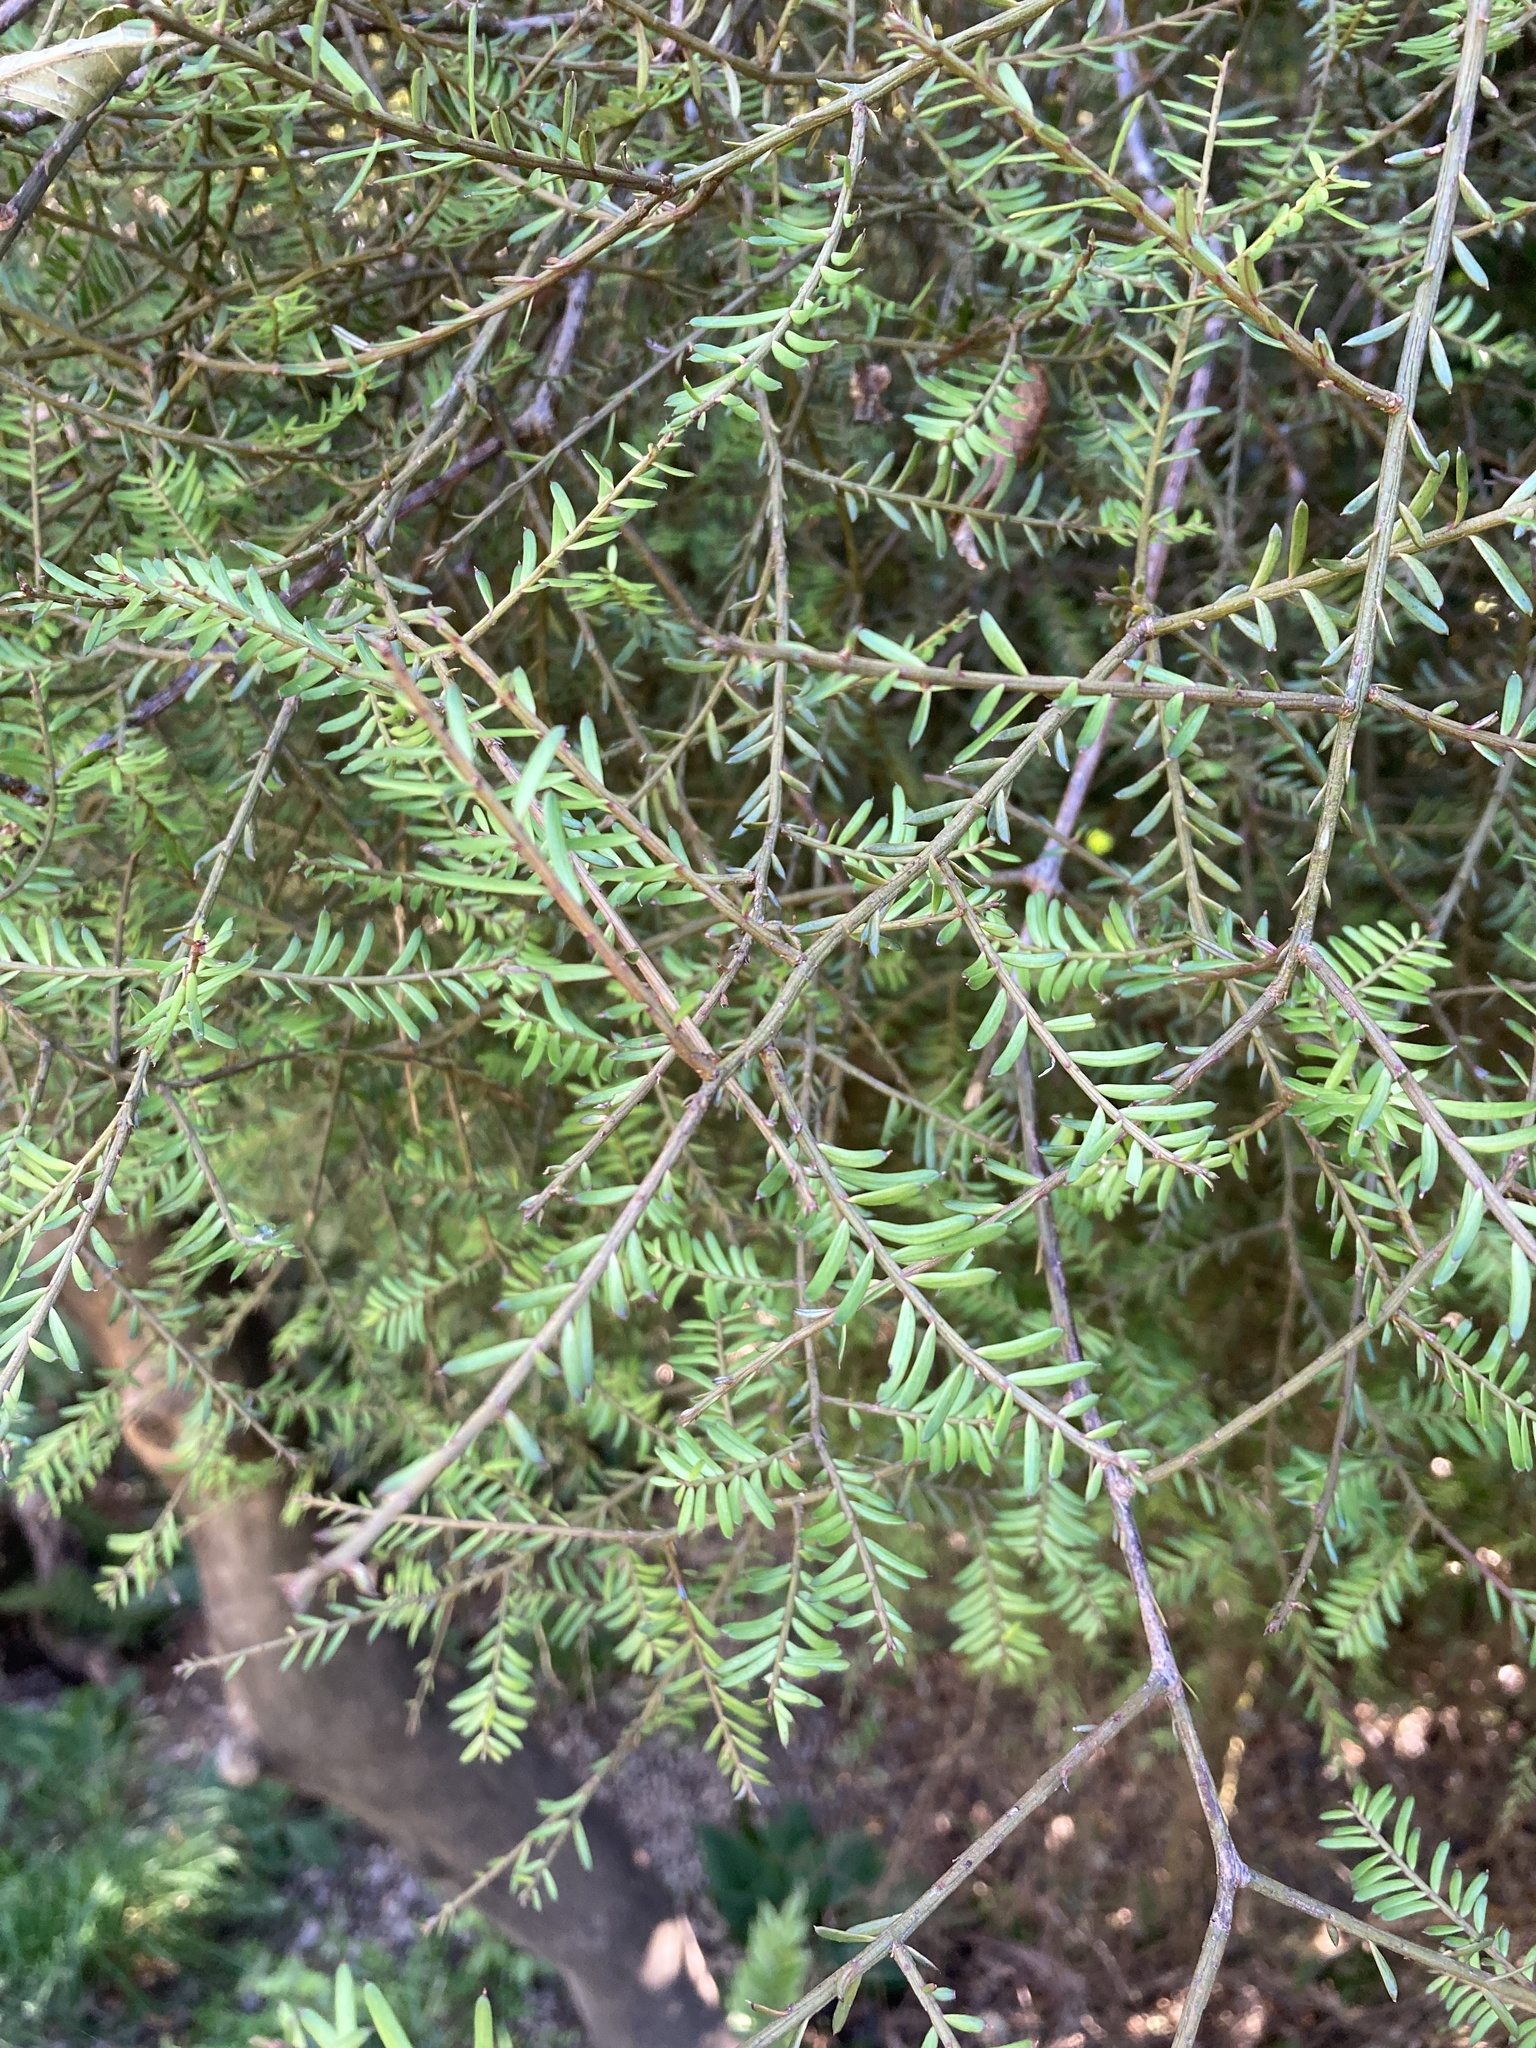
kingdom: Plantae
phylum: Tracheophyta
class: Pinopsida
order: Pinales
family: Podocarpaceae
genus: Prumnopitys
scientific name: Prumnopitys taxifolia
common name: Matai
